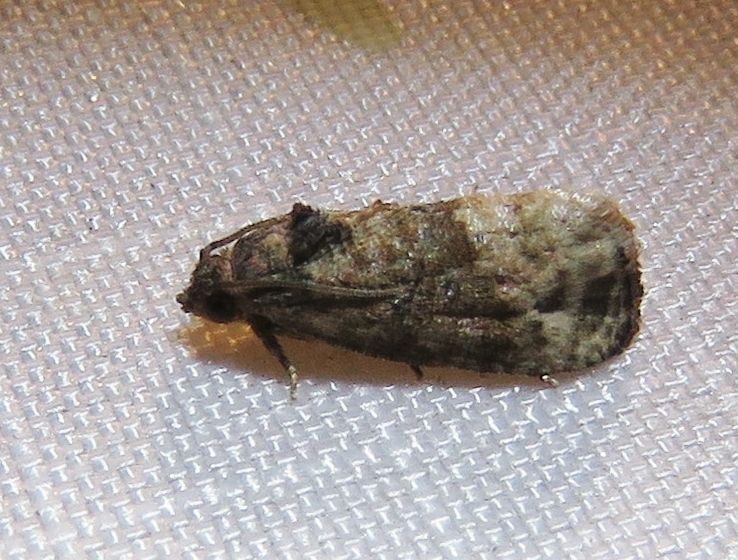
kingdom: Animalia
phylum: Arthropoda
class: Insecta
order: Lepidoptera
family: Tortricidae
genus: Ecdytolopha
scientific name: Ecdytolopha mana
